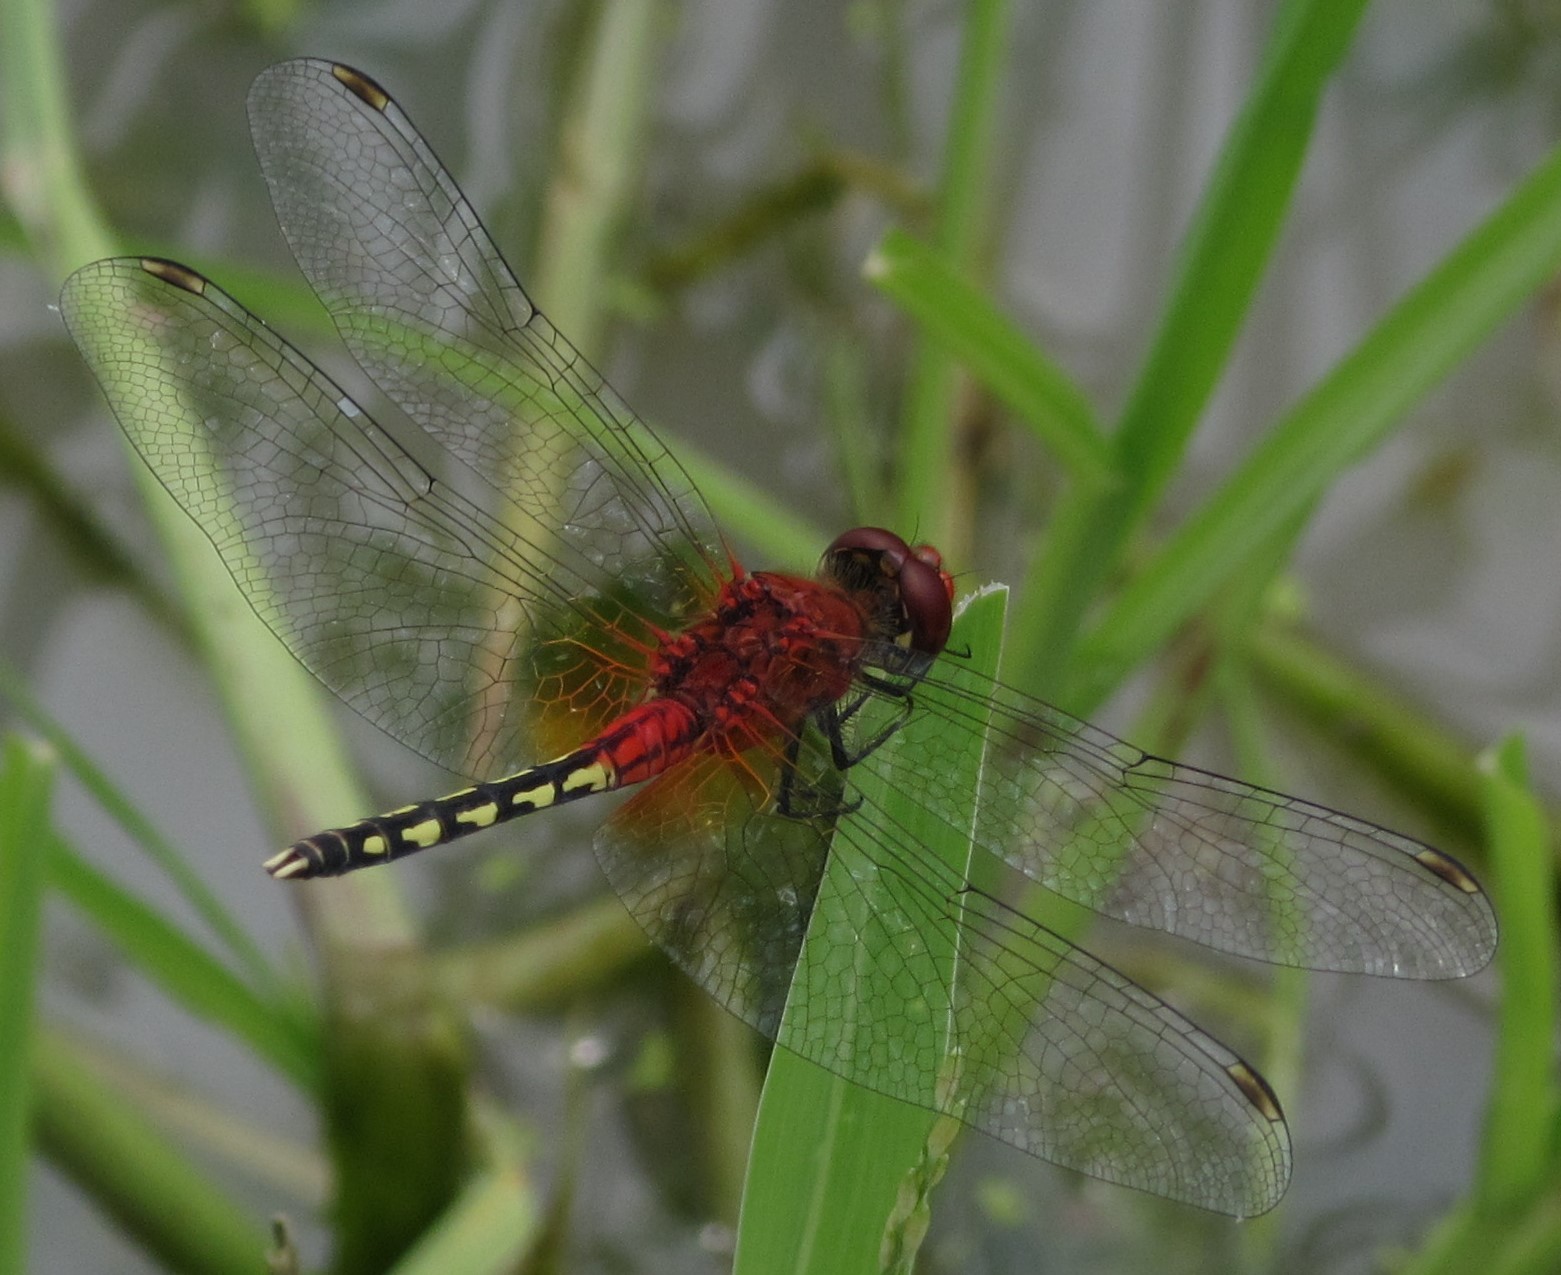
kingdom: Animalia
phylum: Arthropoda
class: Insecta
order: Odonata
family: Libellulidae
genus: Diplacodes
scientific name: Diplacodes luminans
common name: Barbet percher
